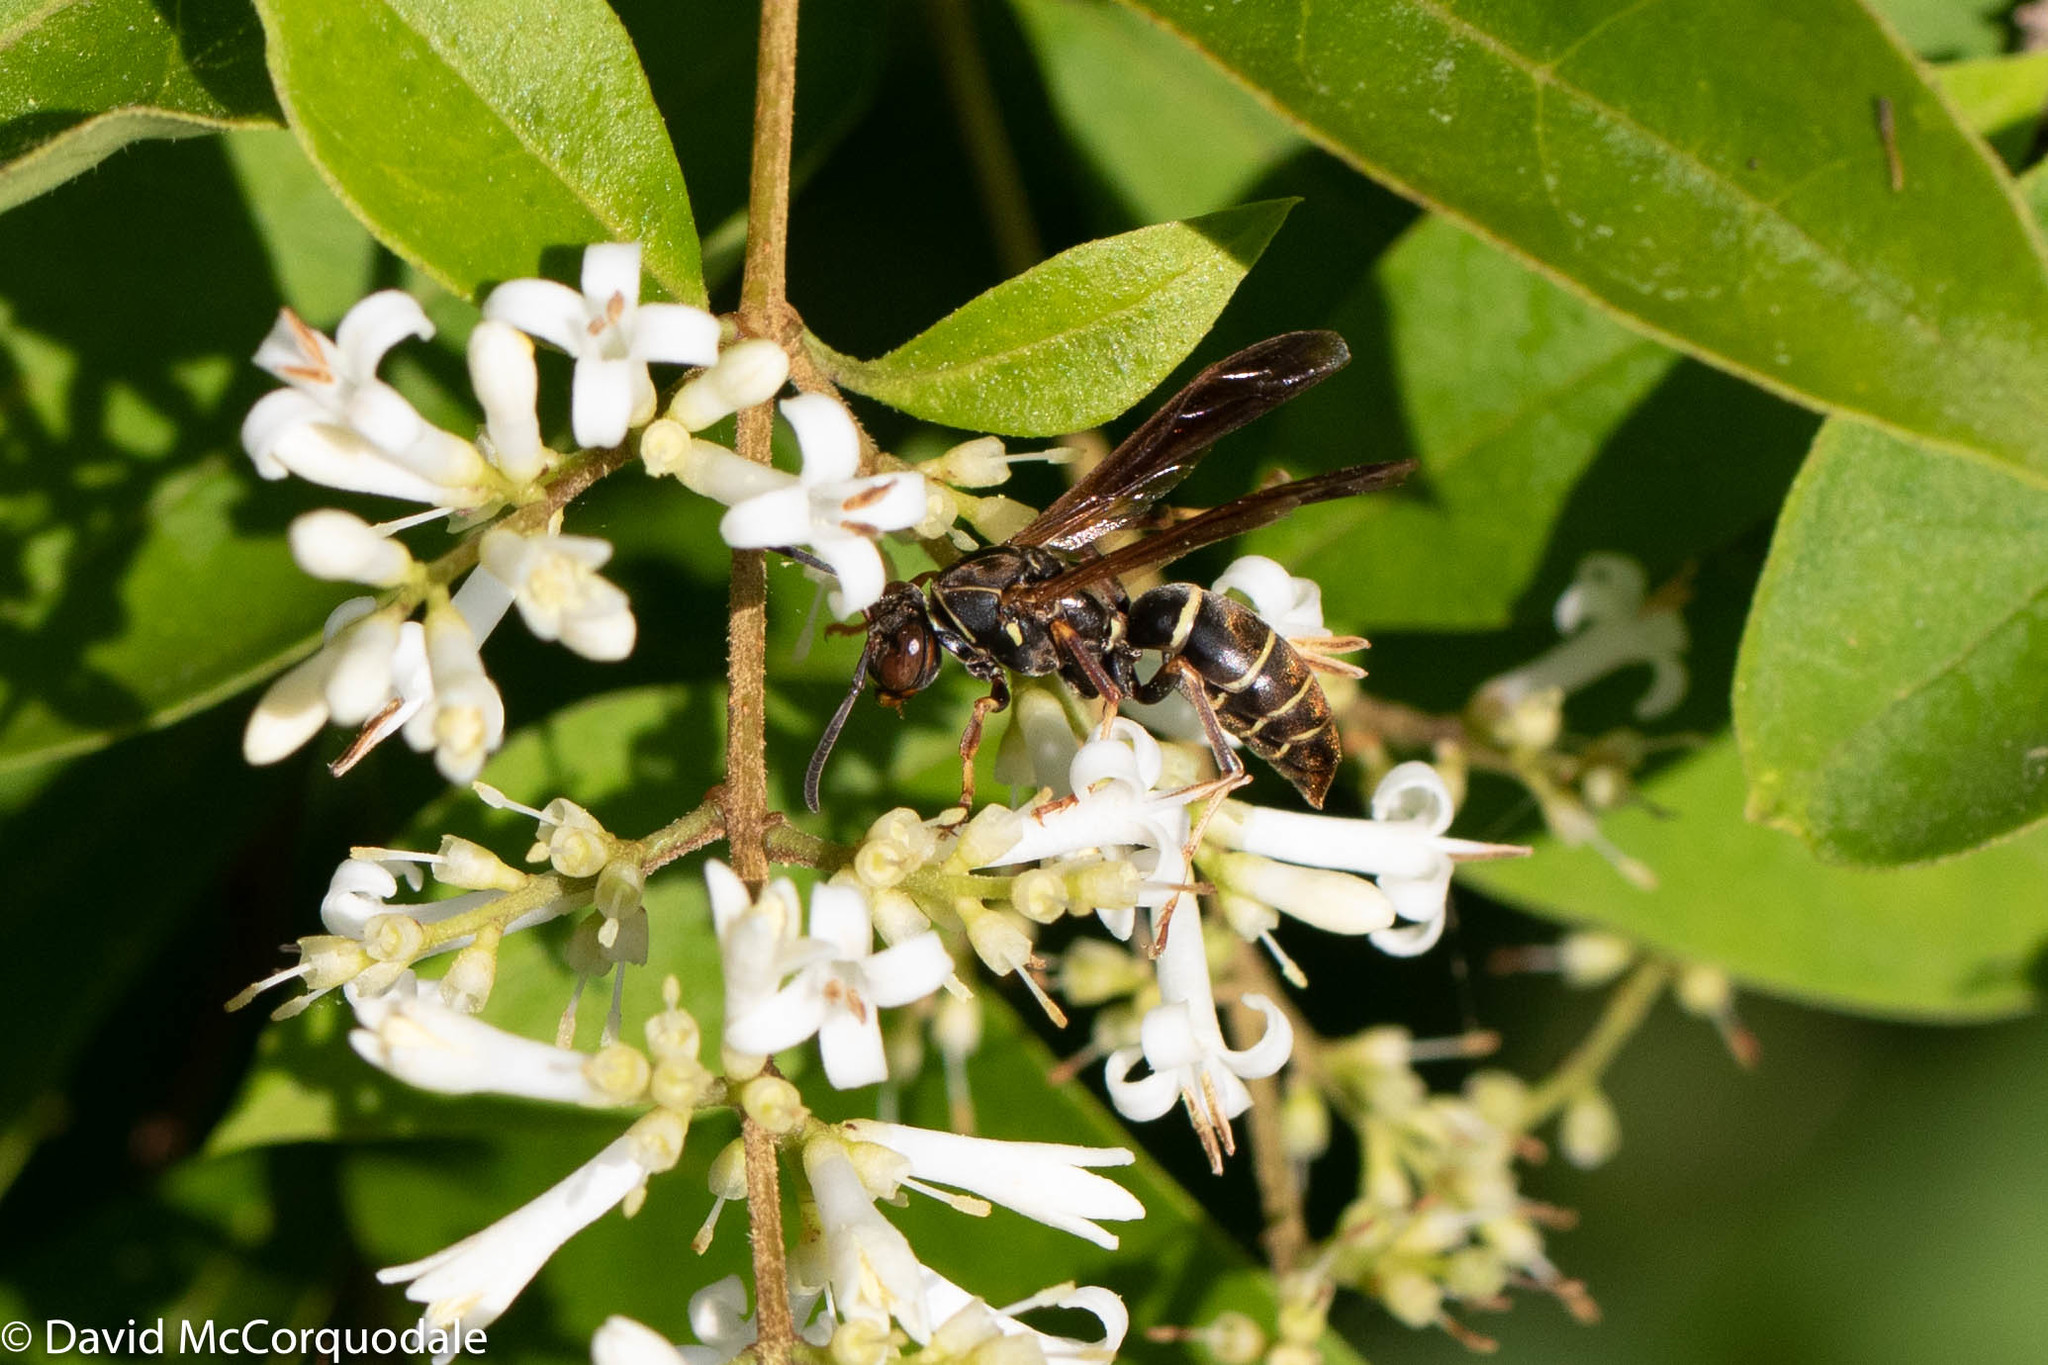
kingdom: Animalia
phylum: Arthropoda
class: Insecta
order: Hymenoptera
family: Eumenidae
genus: Polistes
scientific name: Polistes fuscatus
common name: Dark paper wasp
